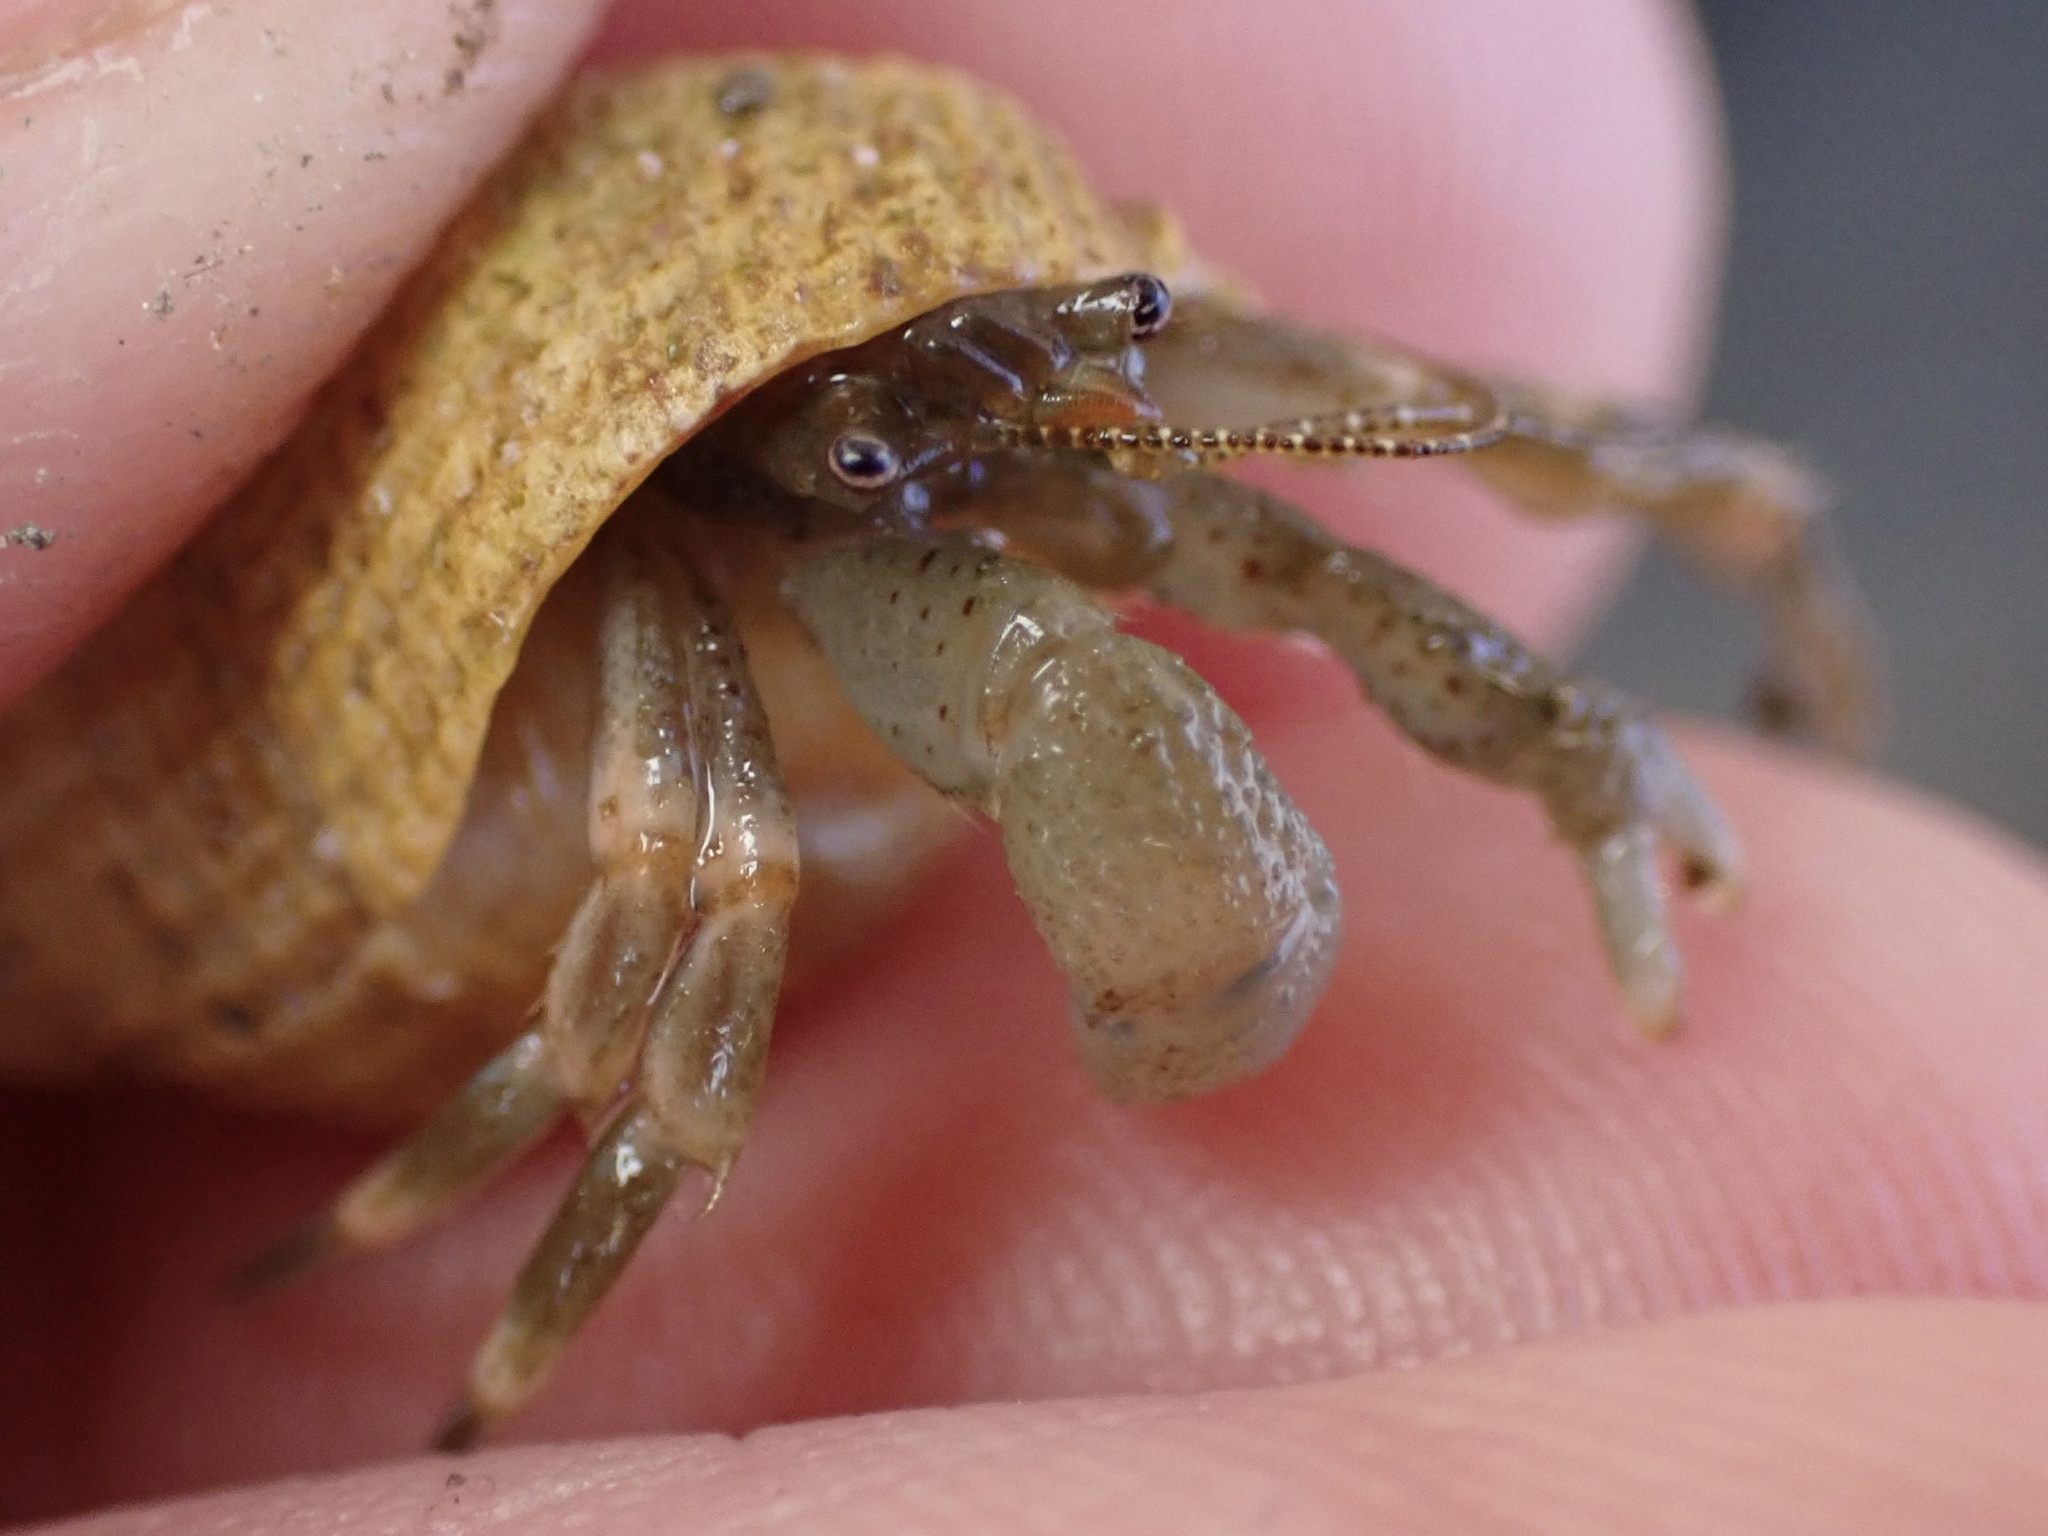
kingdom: Animalia
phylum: Arthropoda
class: Malacostraca
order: Decapoda
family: Paguridae
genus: Pagurus
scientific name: Pagurus venturensis
